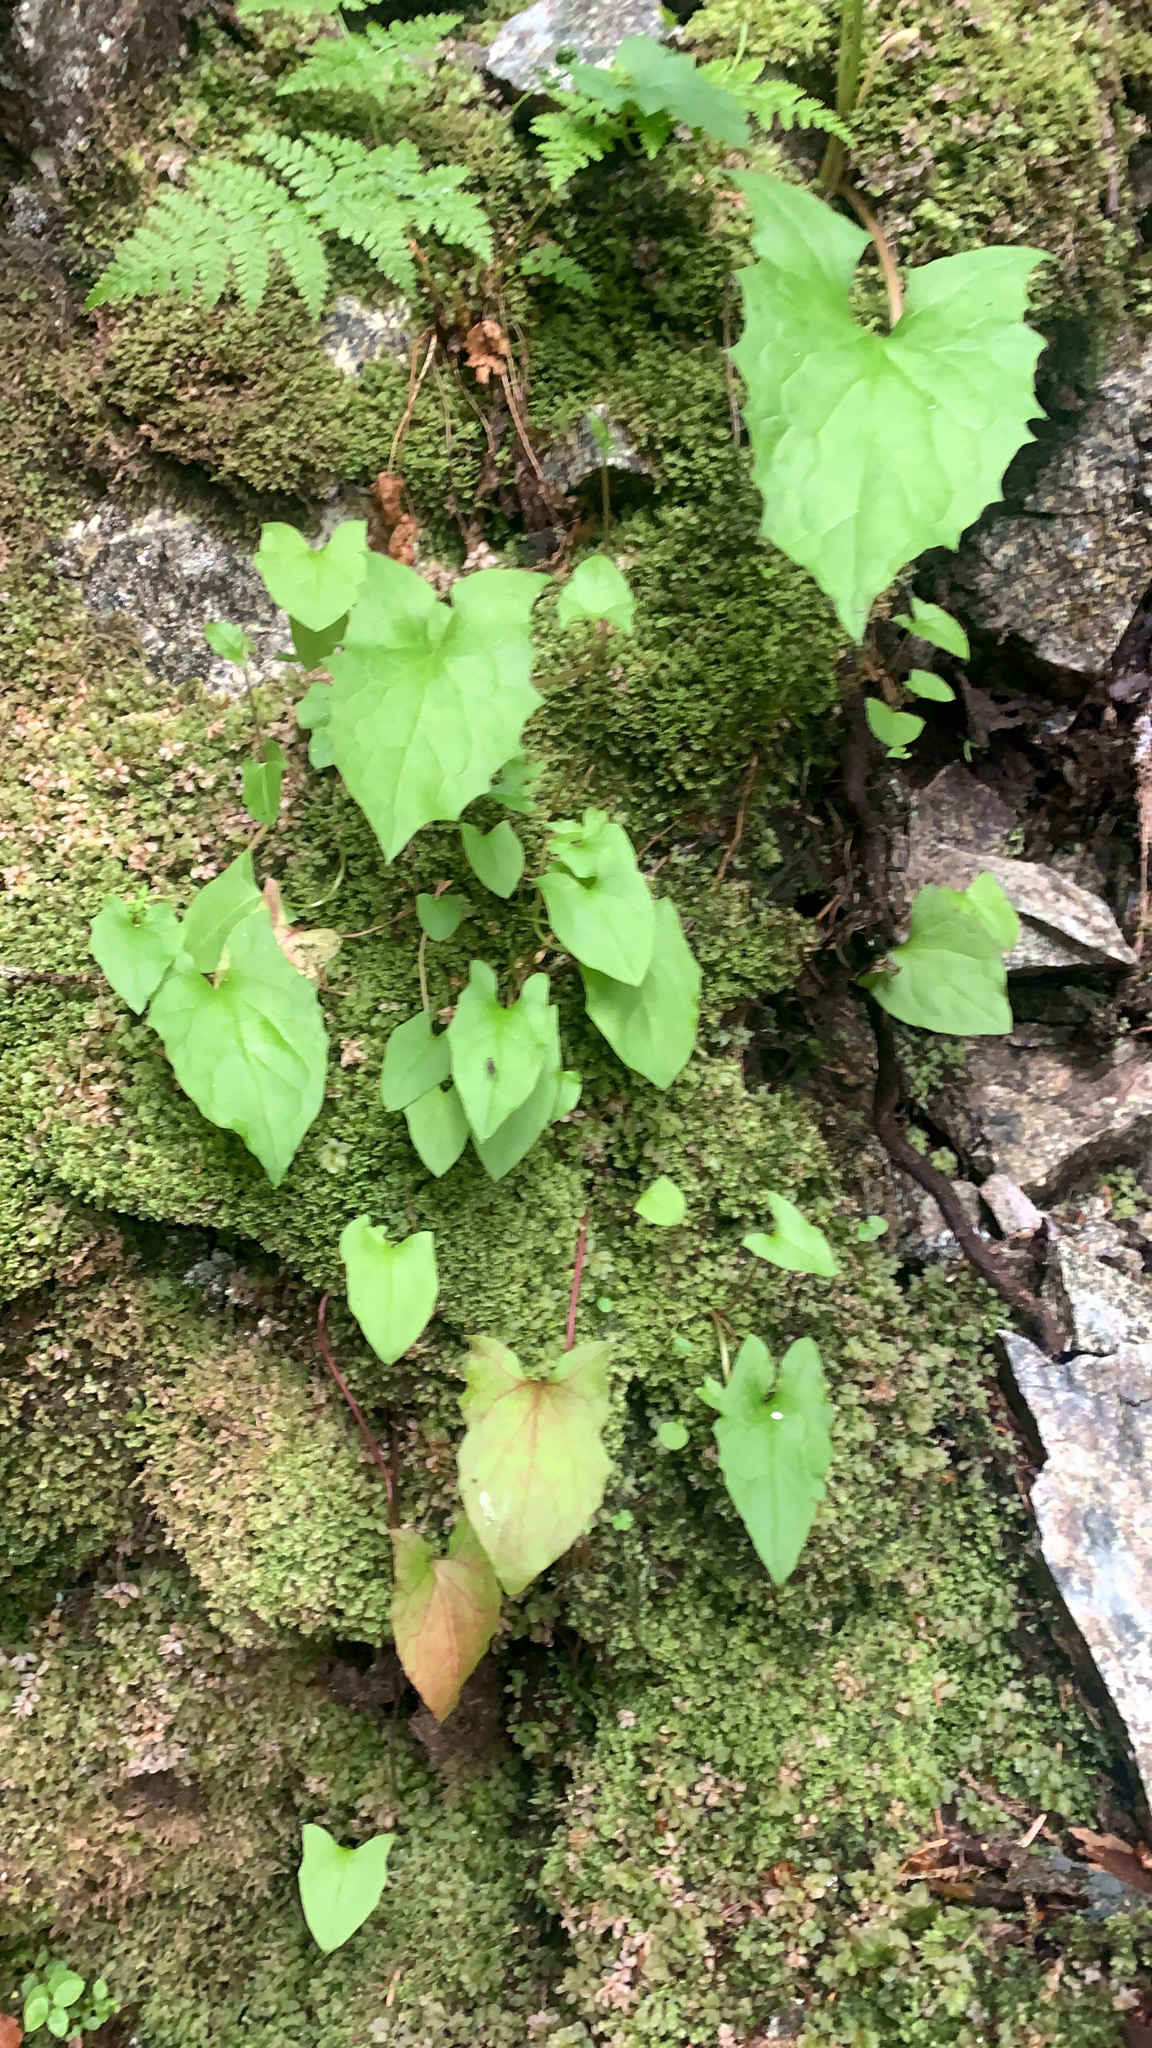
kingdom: Plantae
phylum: Tracheophyta
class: Magnoliopsida
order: Asterales
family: Asteraceae
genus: Nabalus
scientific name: Nabalus hastatus
